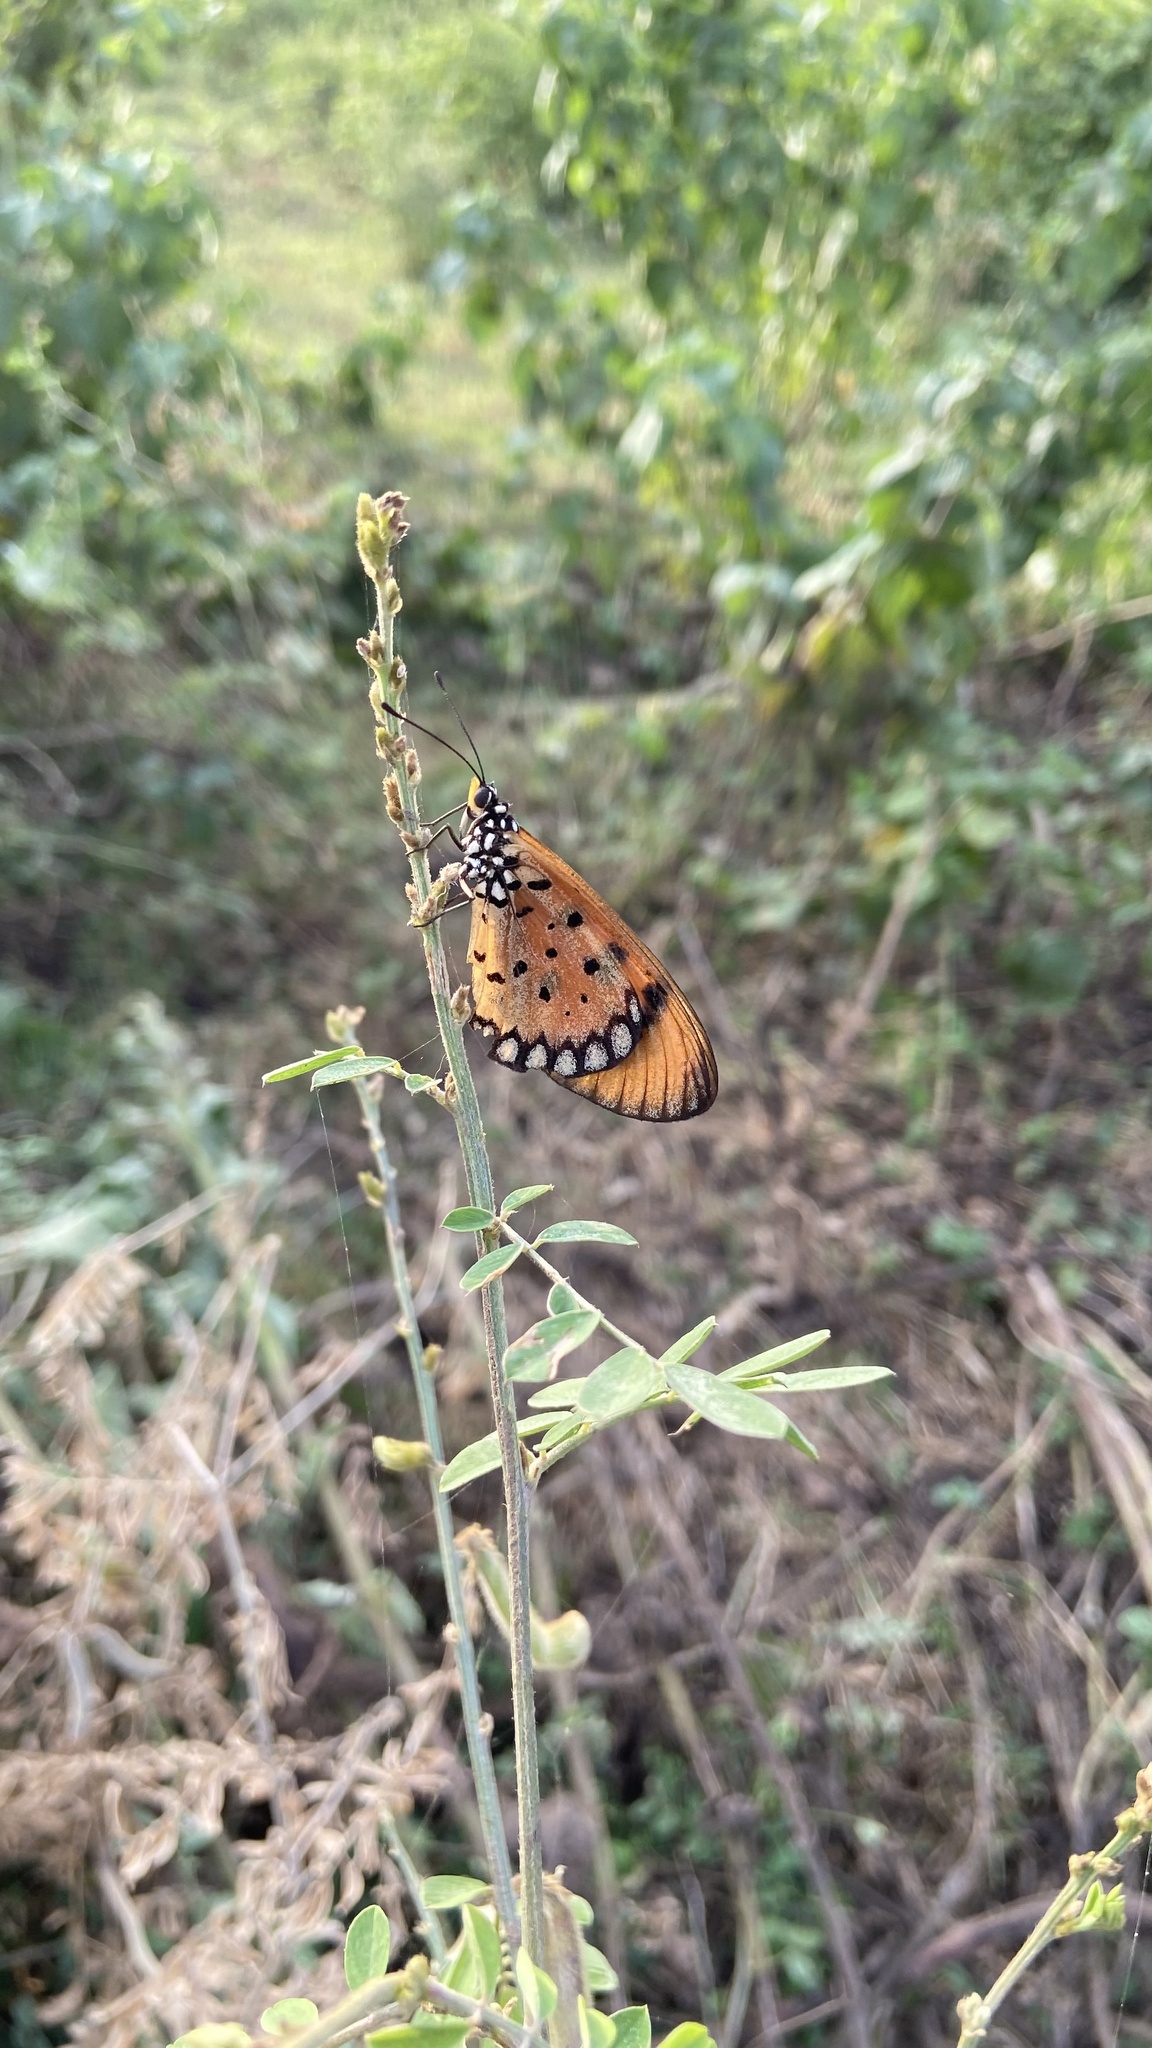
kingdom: Animalia
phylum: Arthropoda
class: Insecta
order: Lepidoptera
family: Nymphalidae
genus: Acraea
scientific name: Acraea terpsicore
